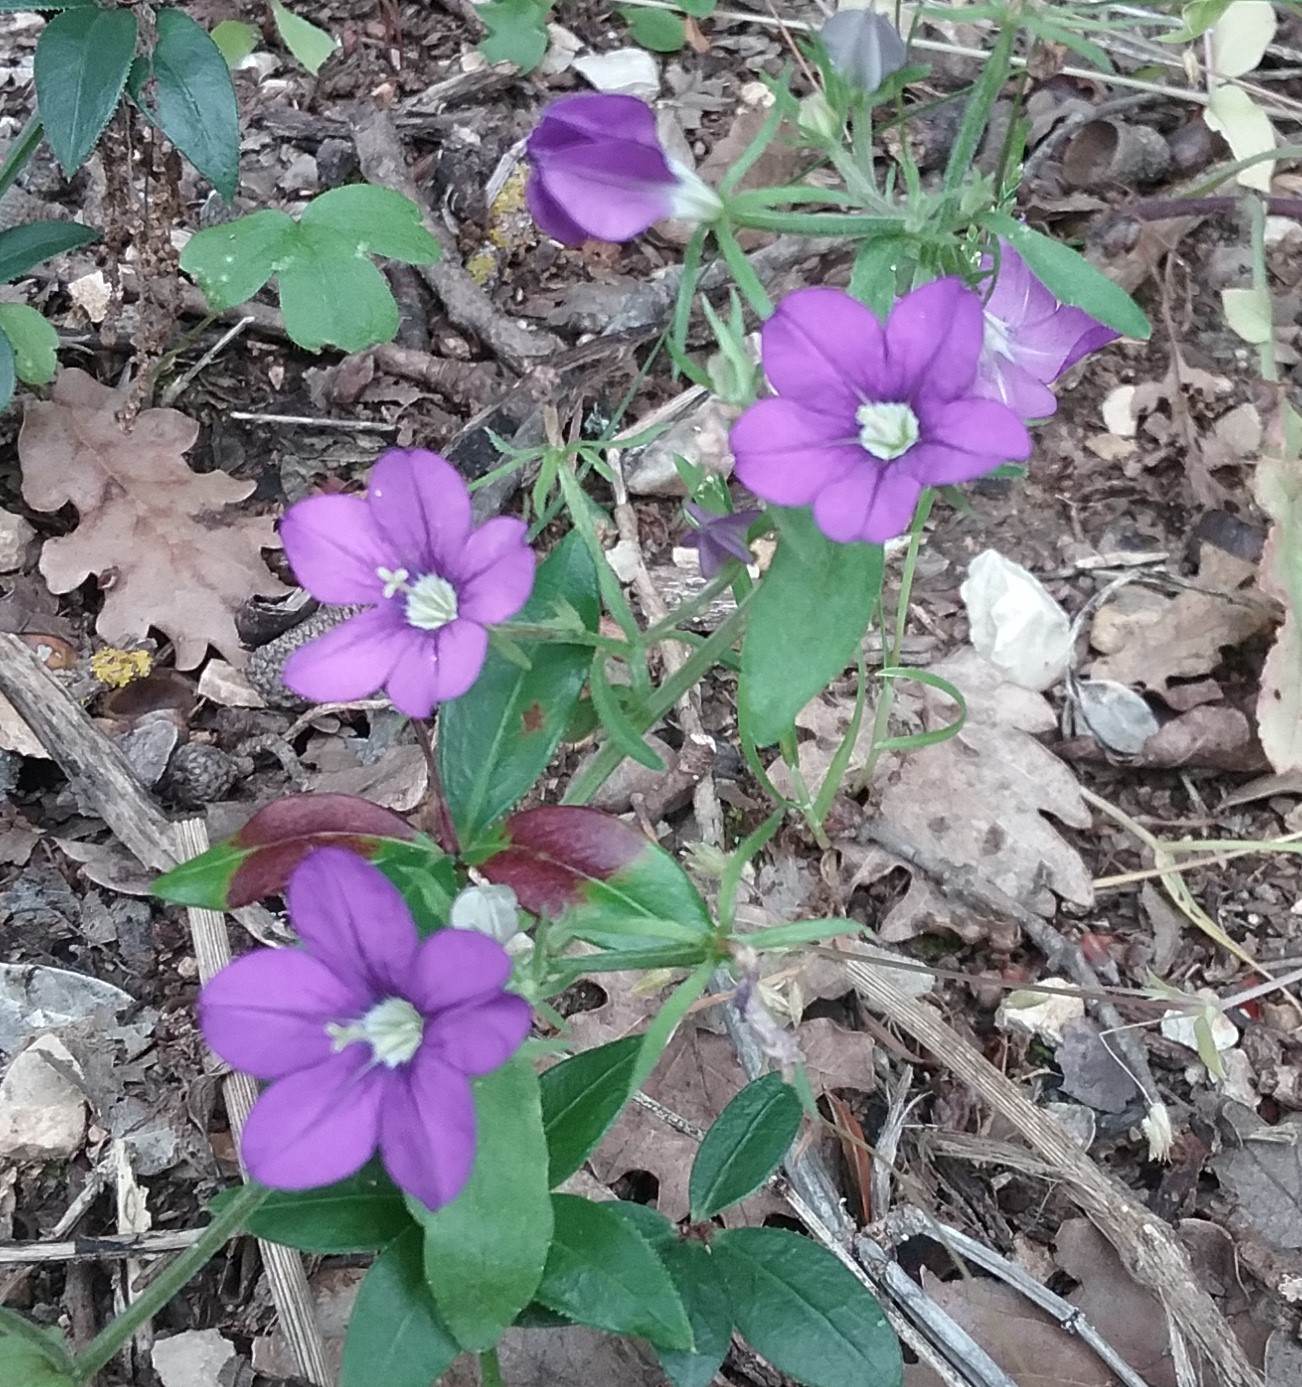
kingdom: Plantae
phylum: Tracheophyta
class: Magnoliopsida
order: Asterales
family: Campanulaceae
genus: Legousia
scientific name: Legousia speculum-veneris
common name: Large venus's-looking-glass
